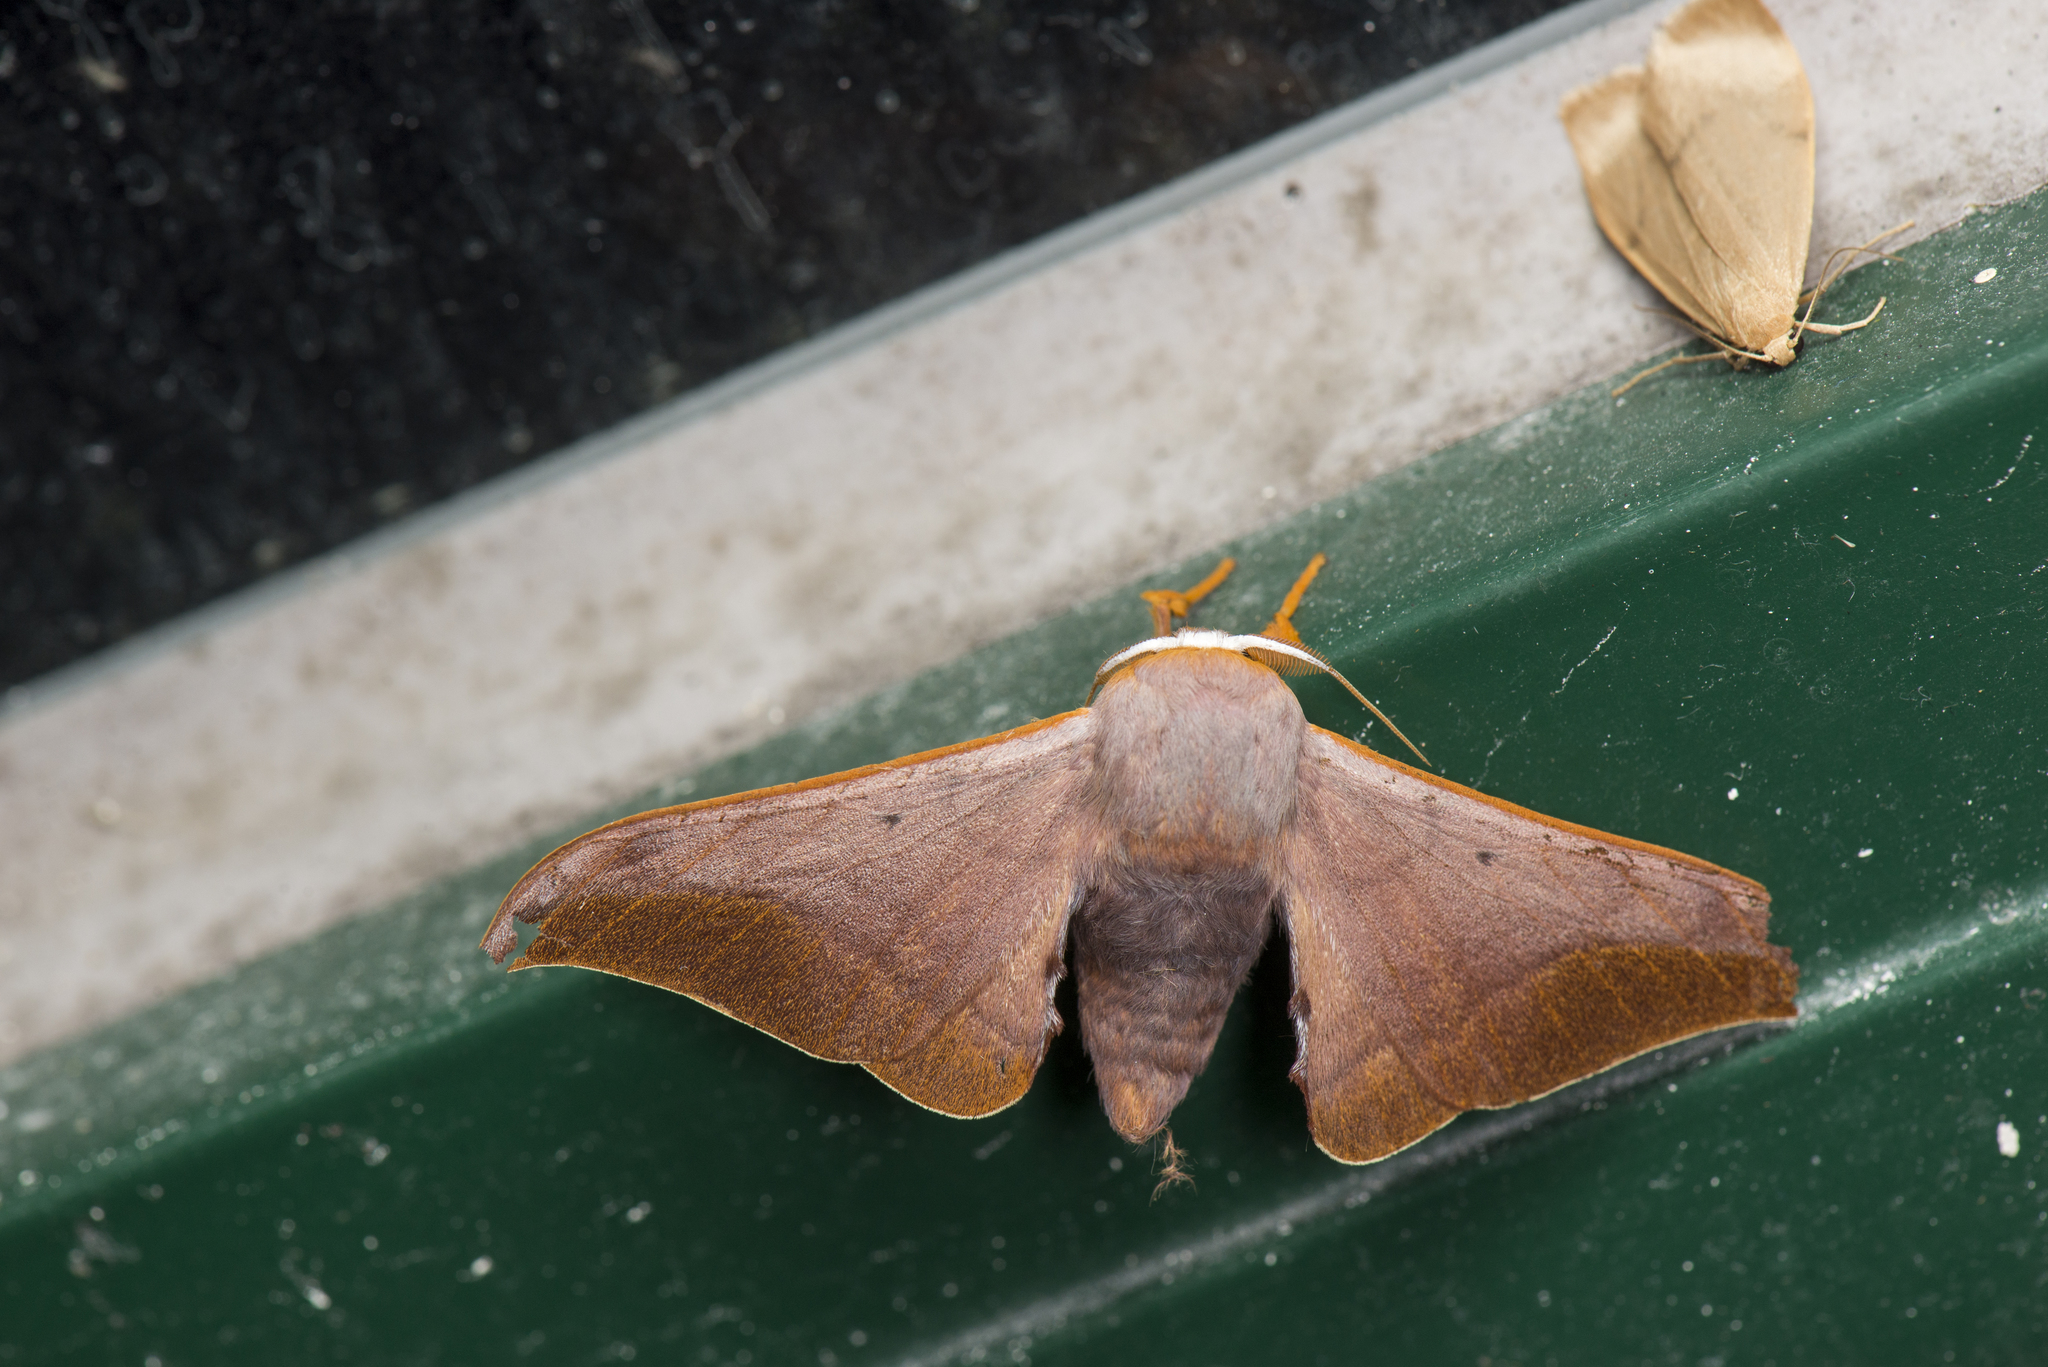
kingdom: Animalia
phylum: Arthropoda
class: Insecta
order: Lepidoptera
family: Endromidae
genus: Comparmustilia
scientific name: Comparmustilia gerontica
